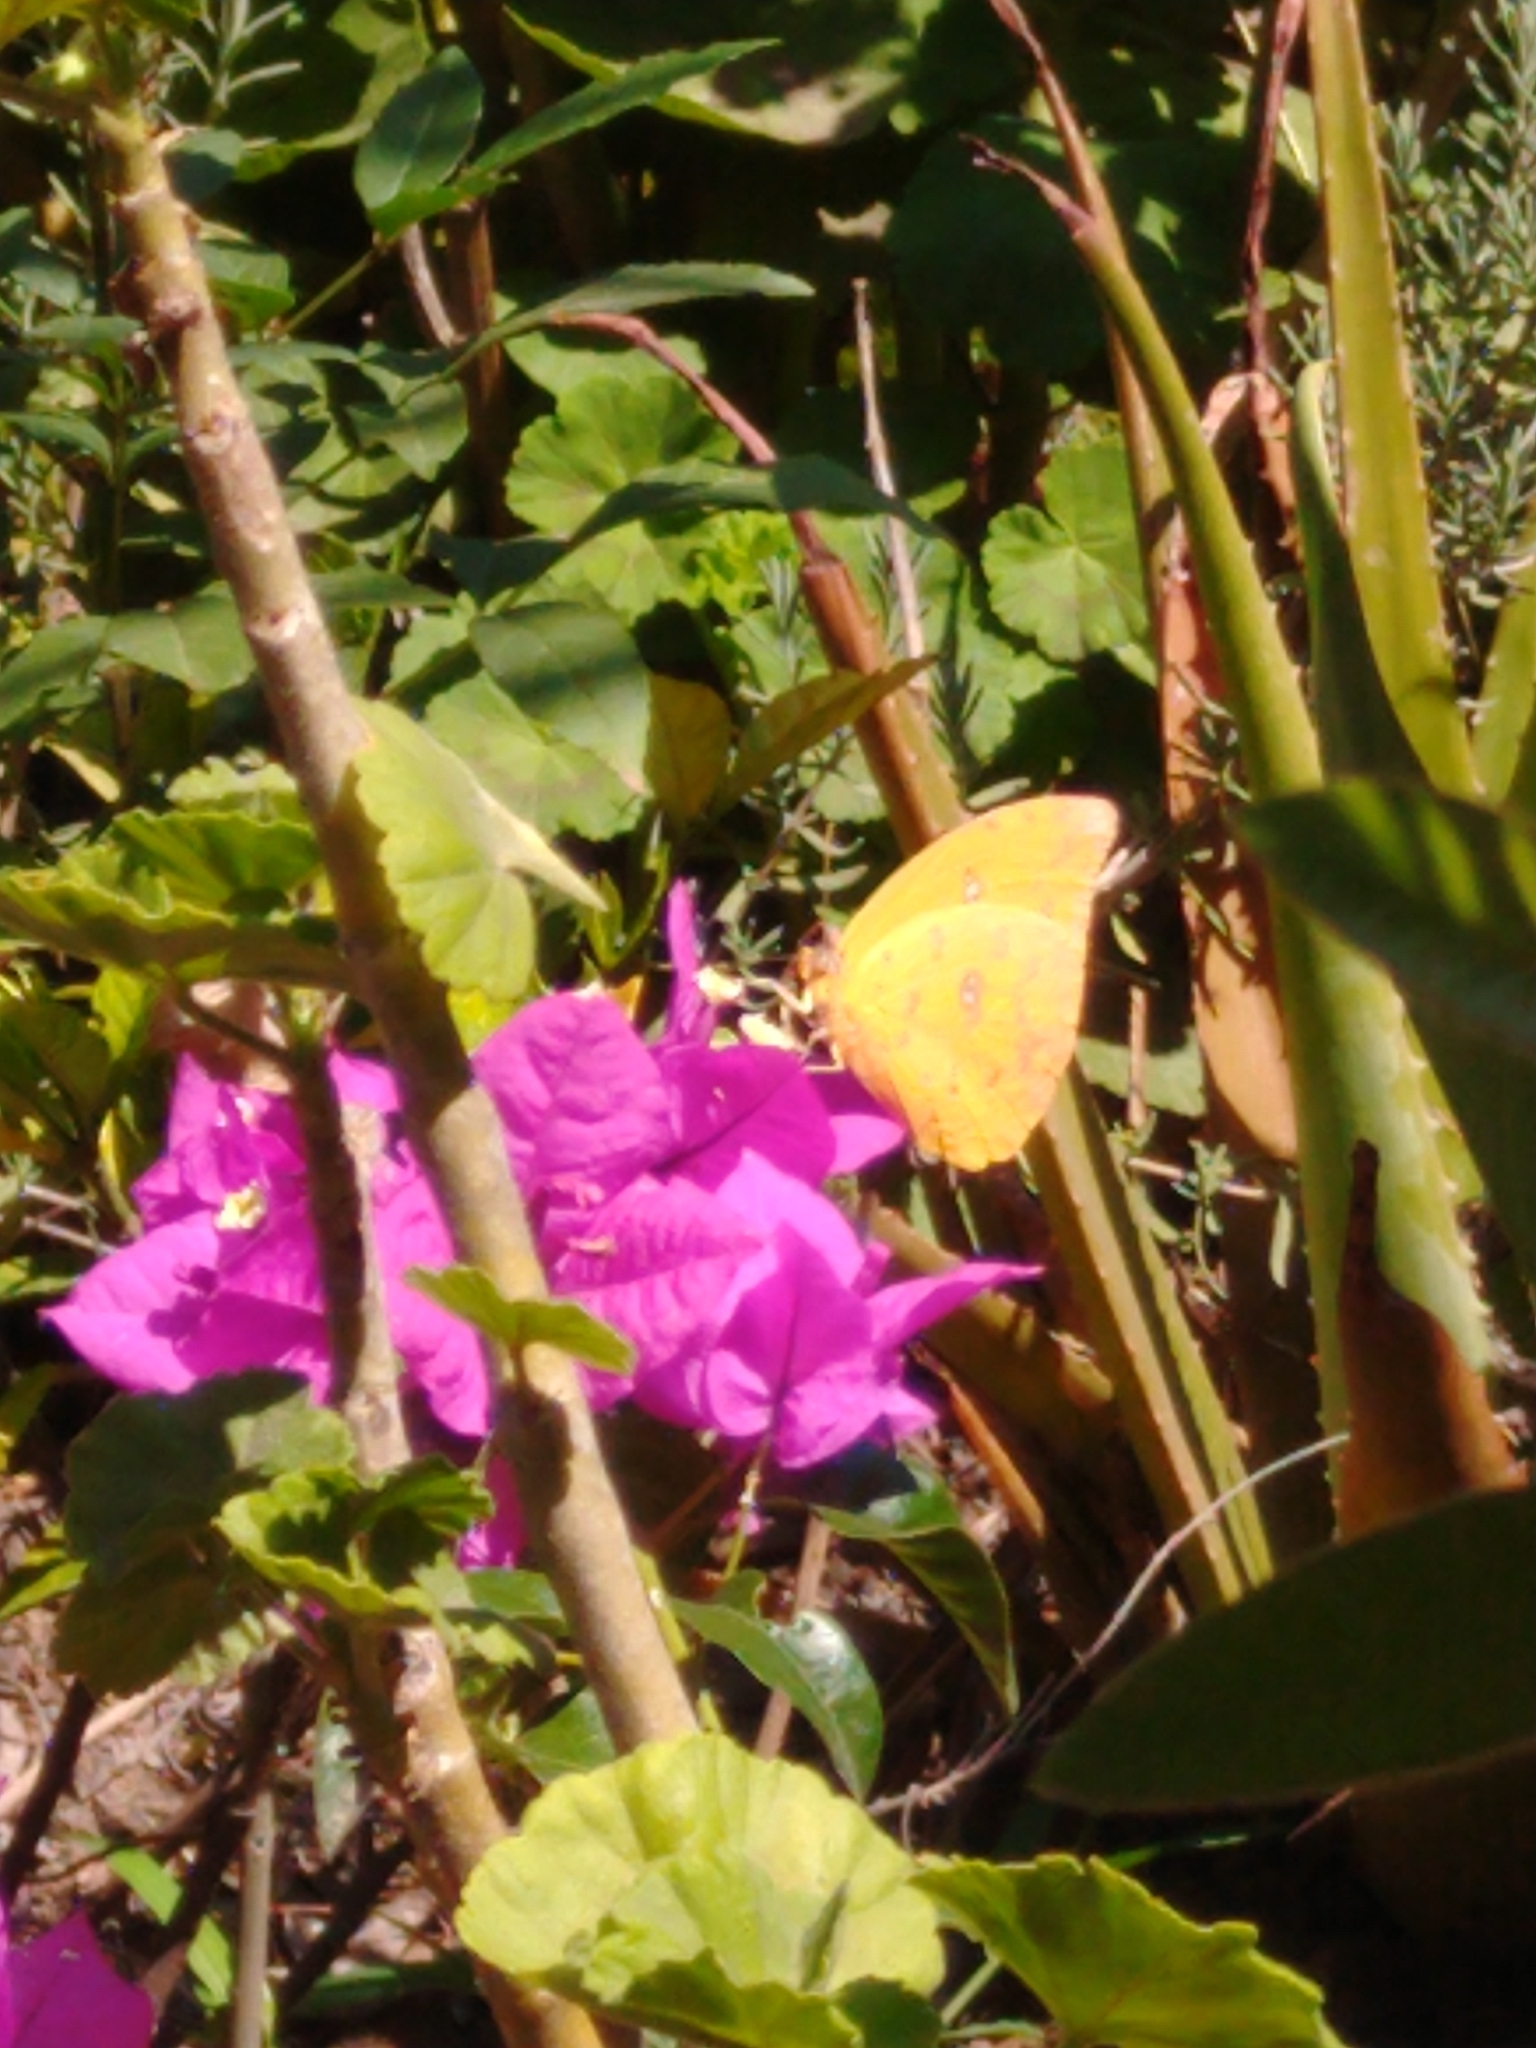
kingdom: Animalia
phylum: Arthropoda
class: Insecta
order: Lepidoptera
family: Pieridae
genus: Phoebis
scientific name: Phoebis philea
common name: Orange-barred giant sulphur
